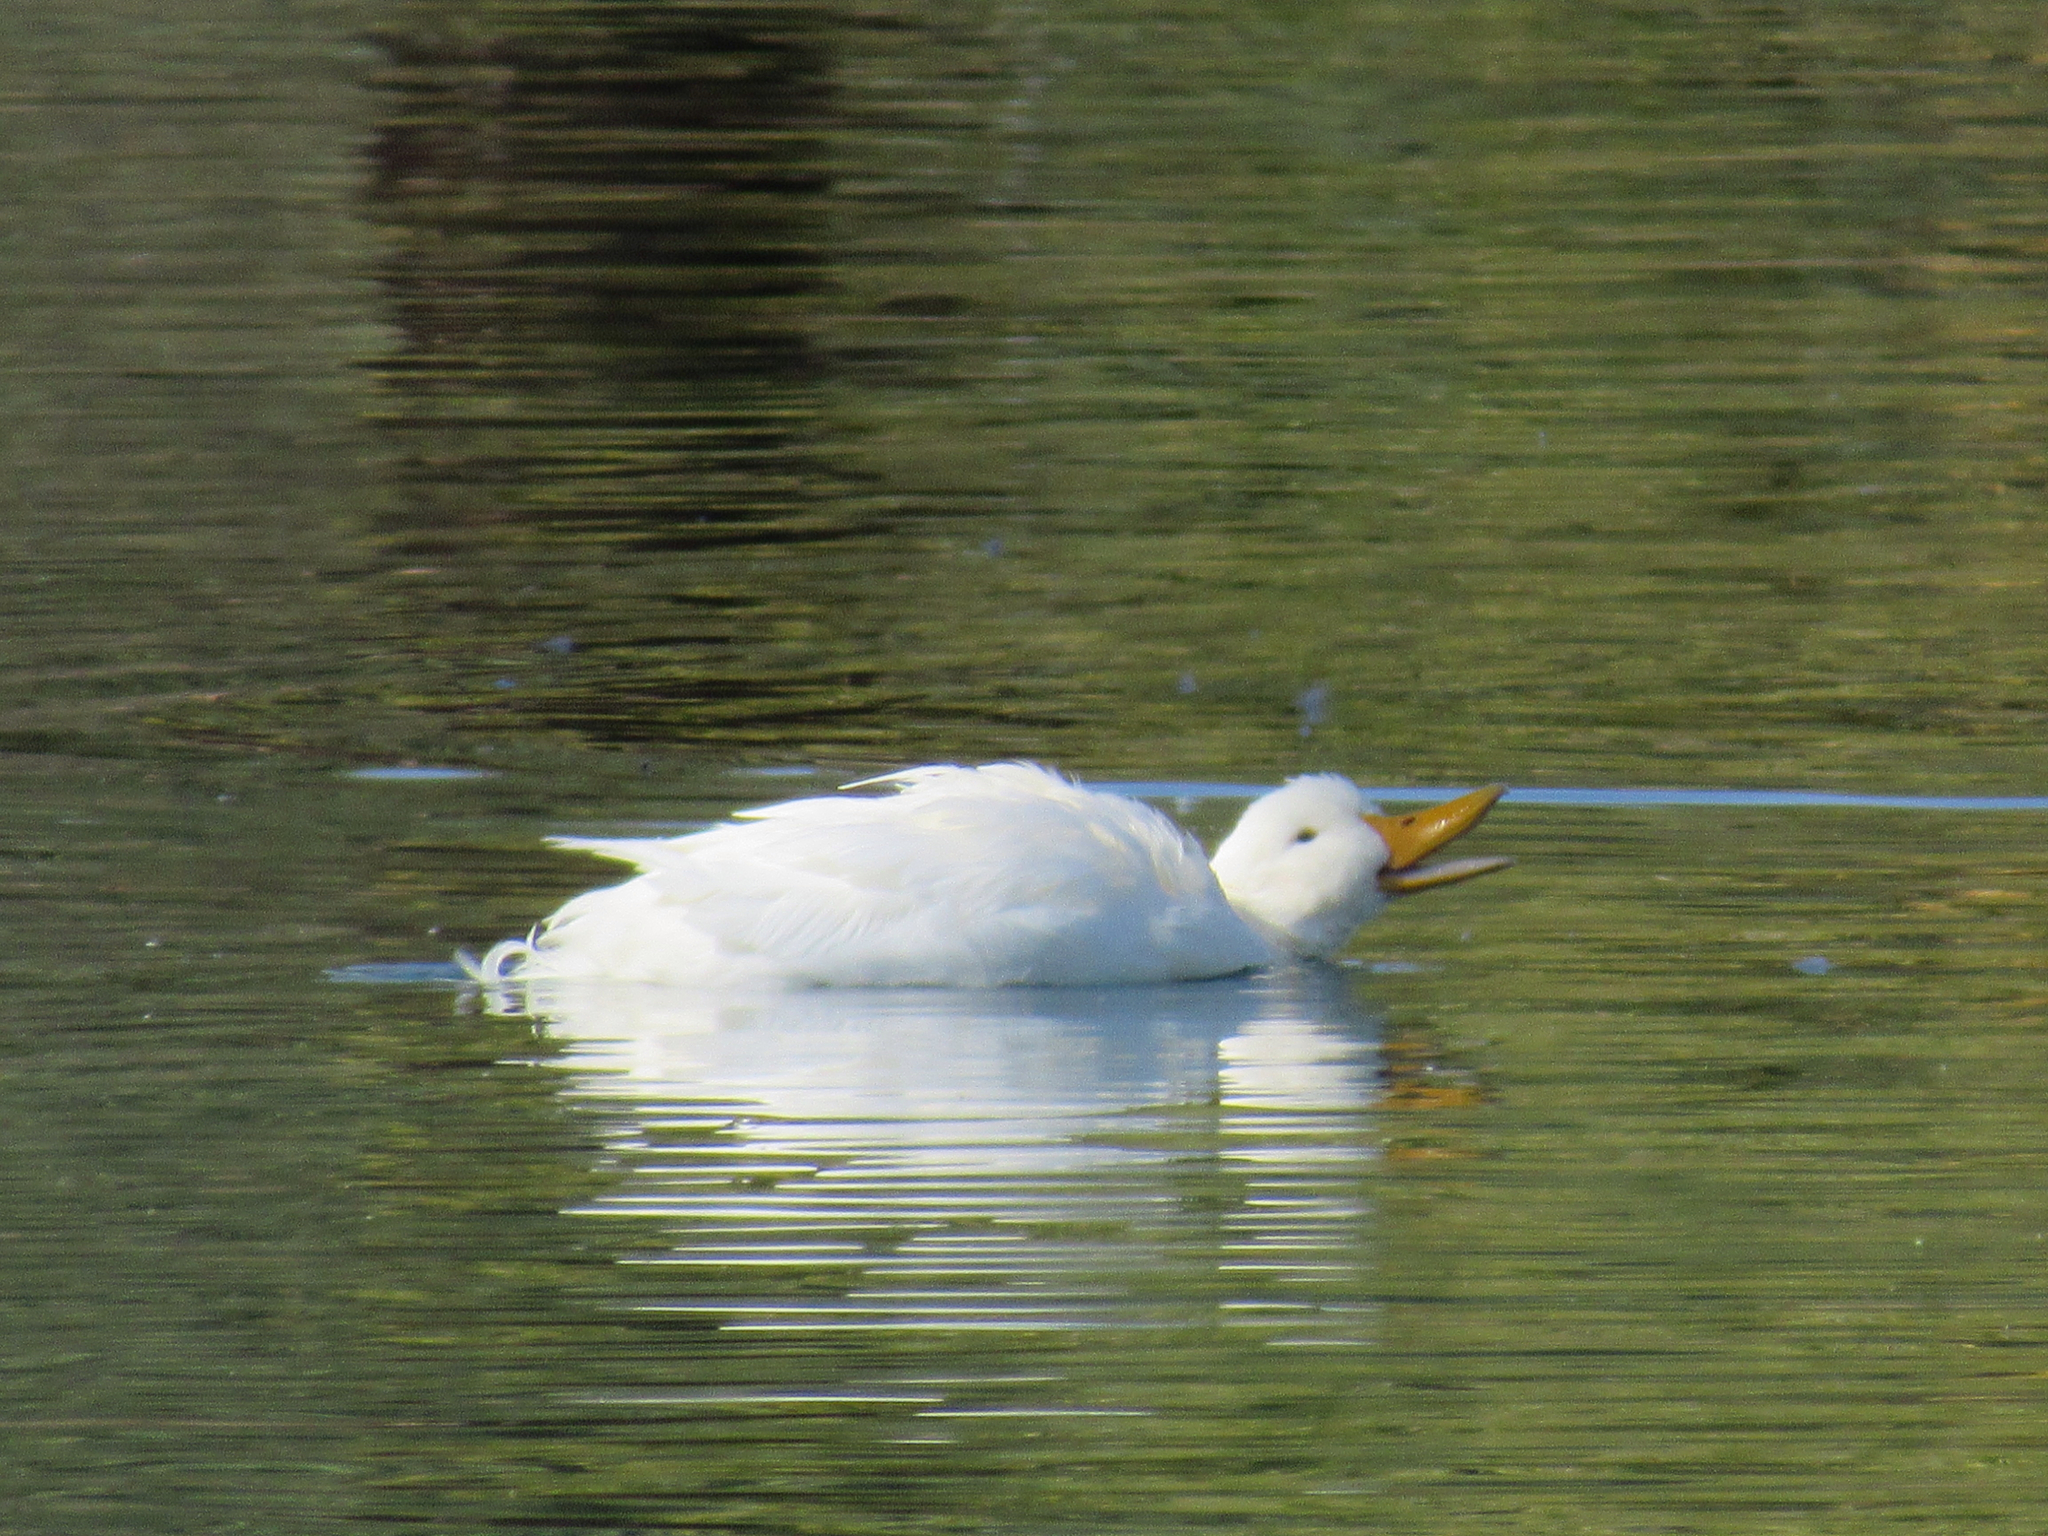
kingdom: Animalia
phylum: Chordata
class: Aves
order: Anseriformes
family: Anatidae
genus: Anas
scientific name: Anas platyrhynchos
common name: Mallard
